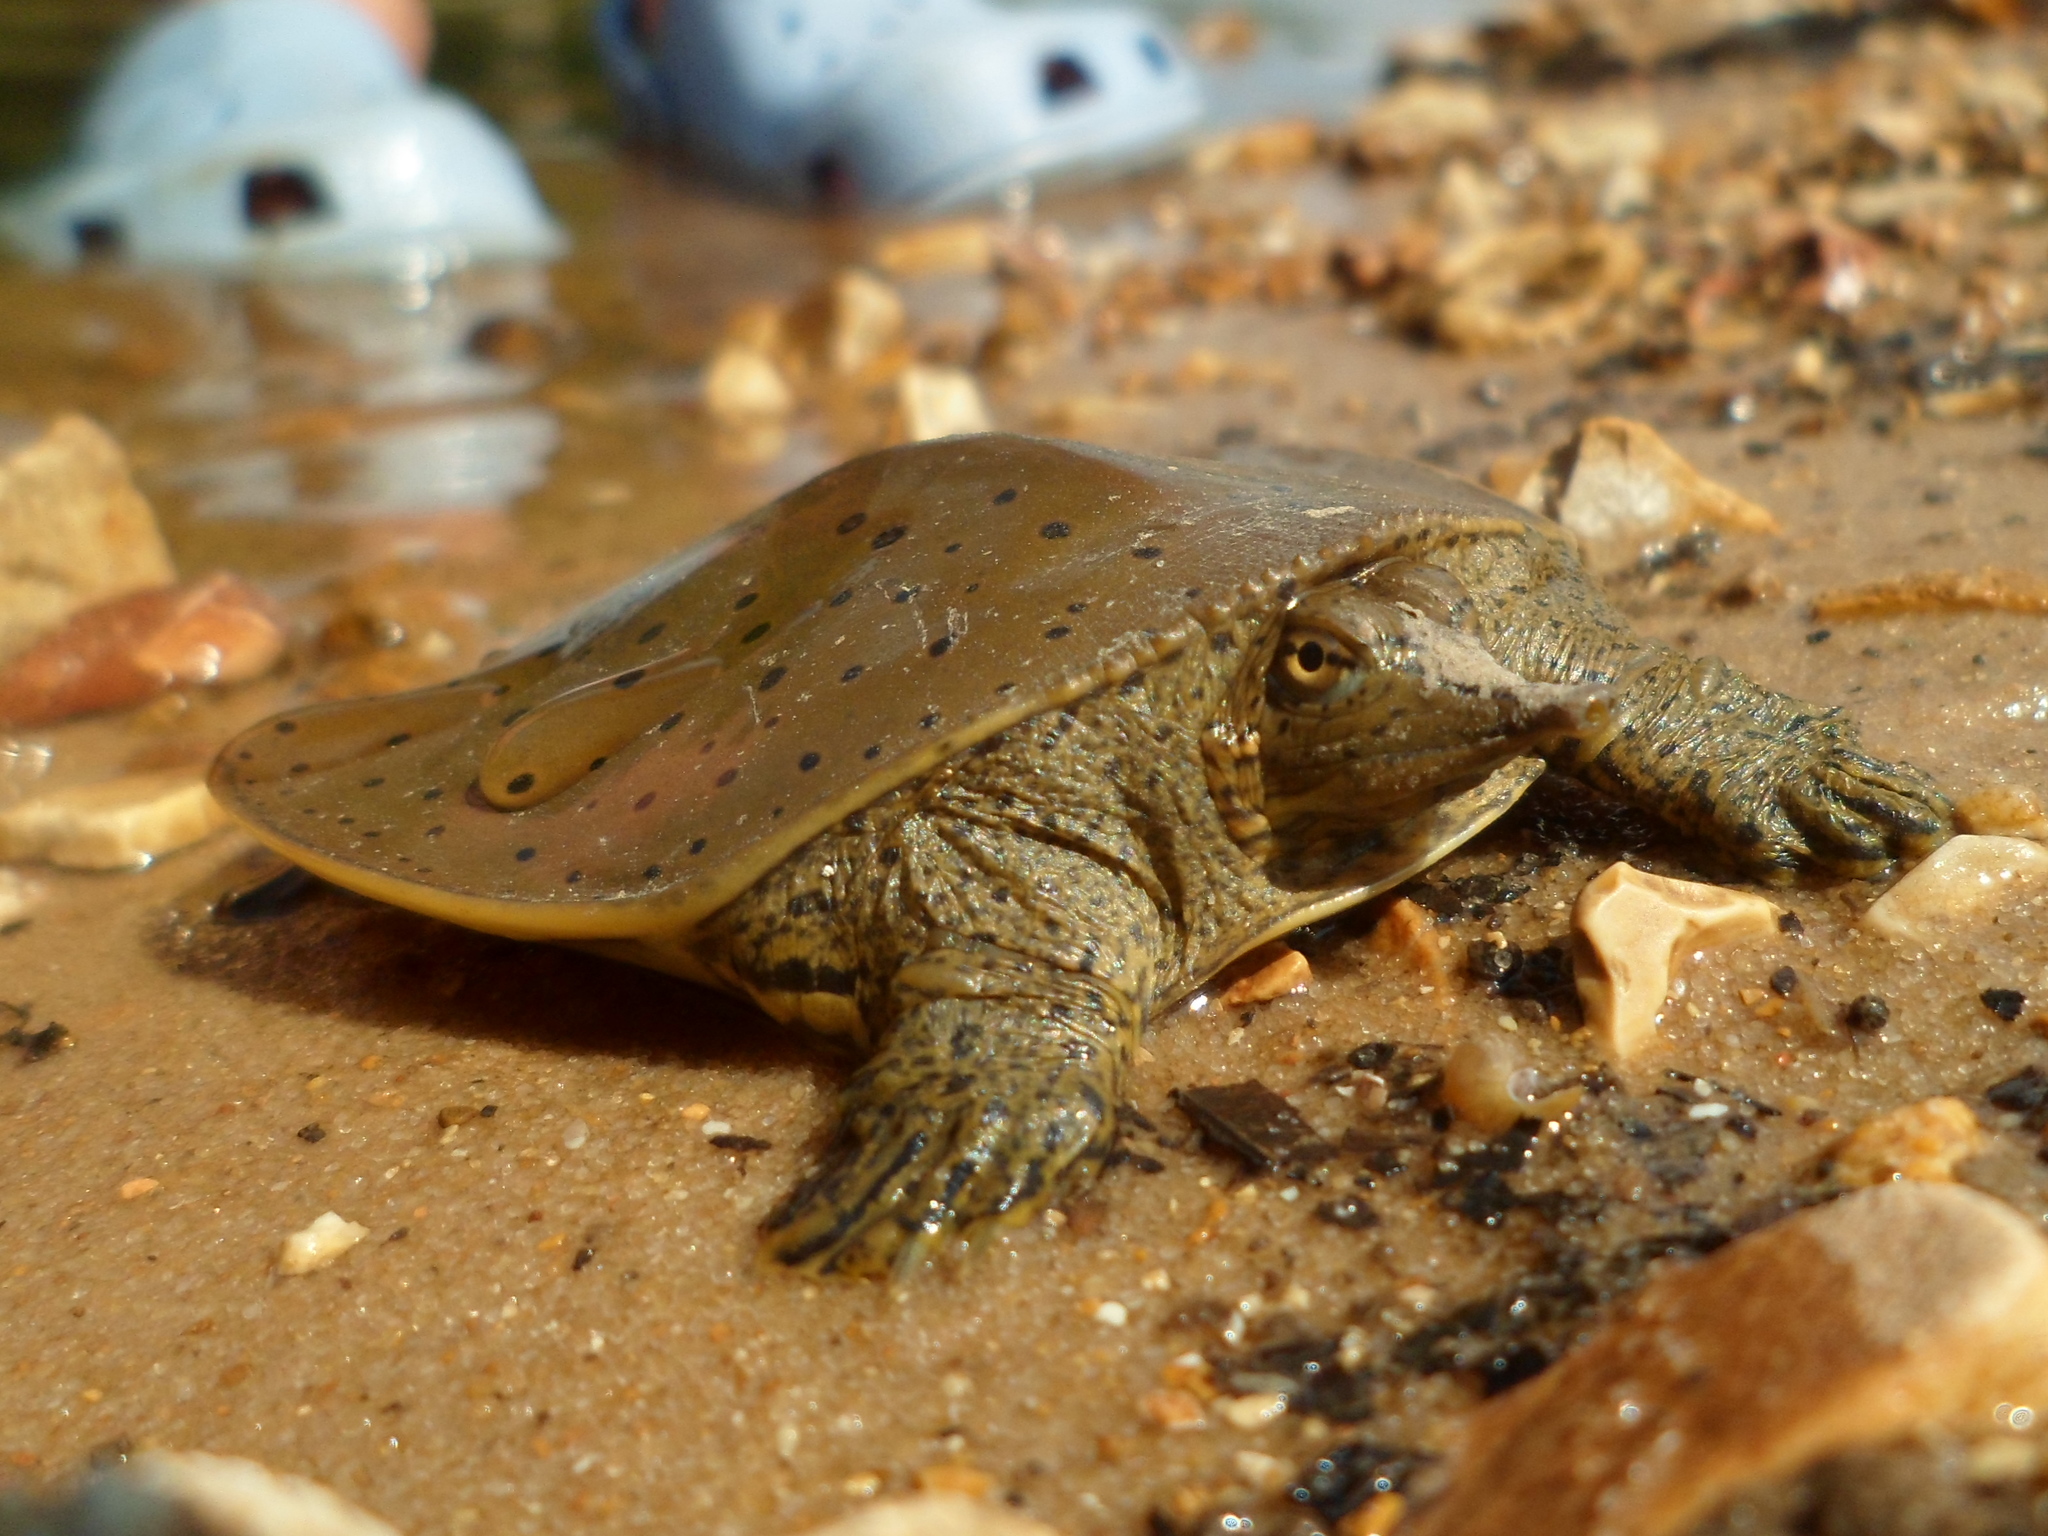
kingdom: Animalia
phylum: Chordata
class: Testudines
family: Trionychidae
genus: Apalone
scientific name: Apalone spinifera
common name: Spiny softshell turtle
